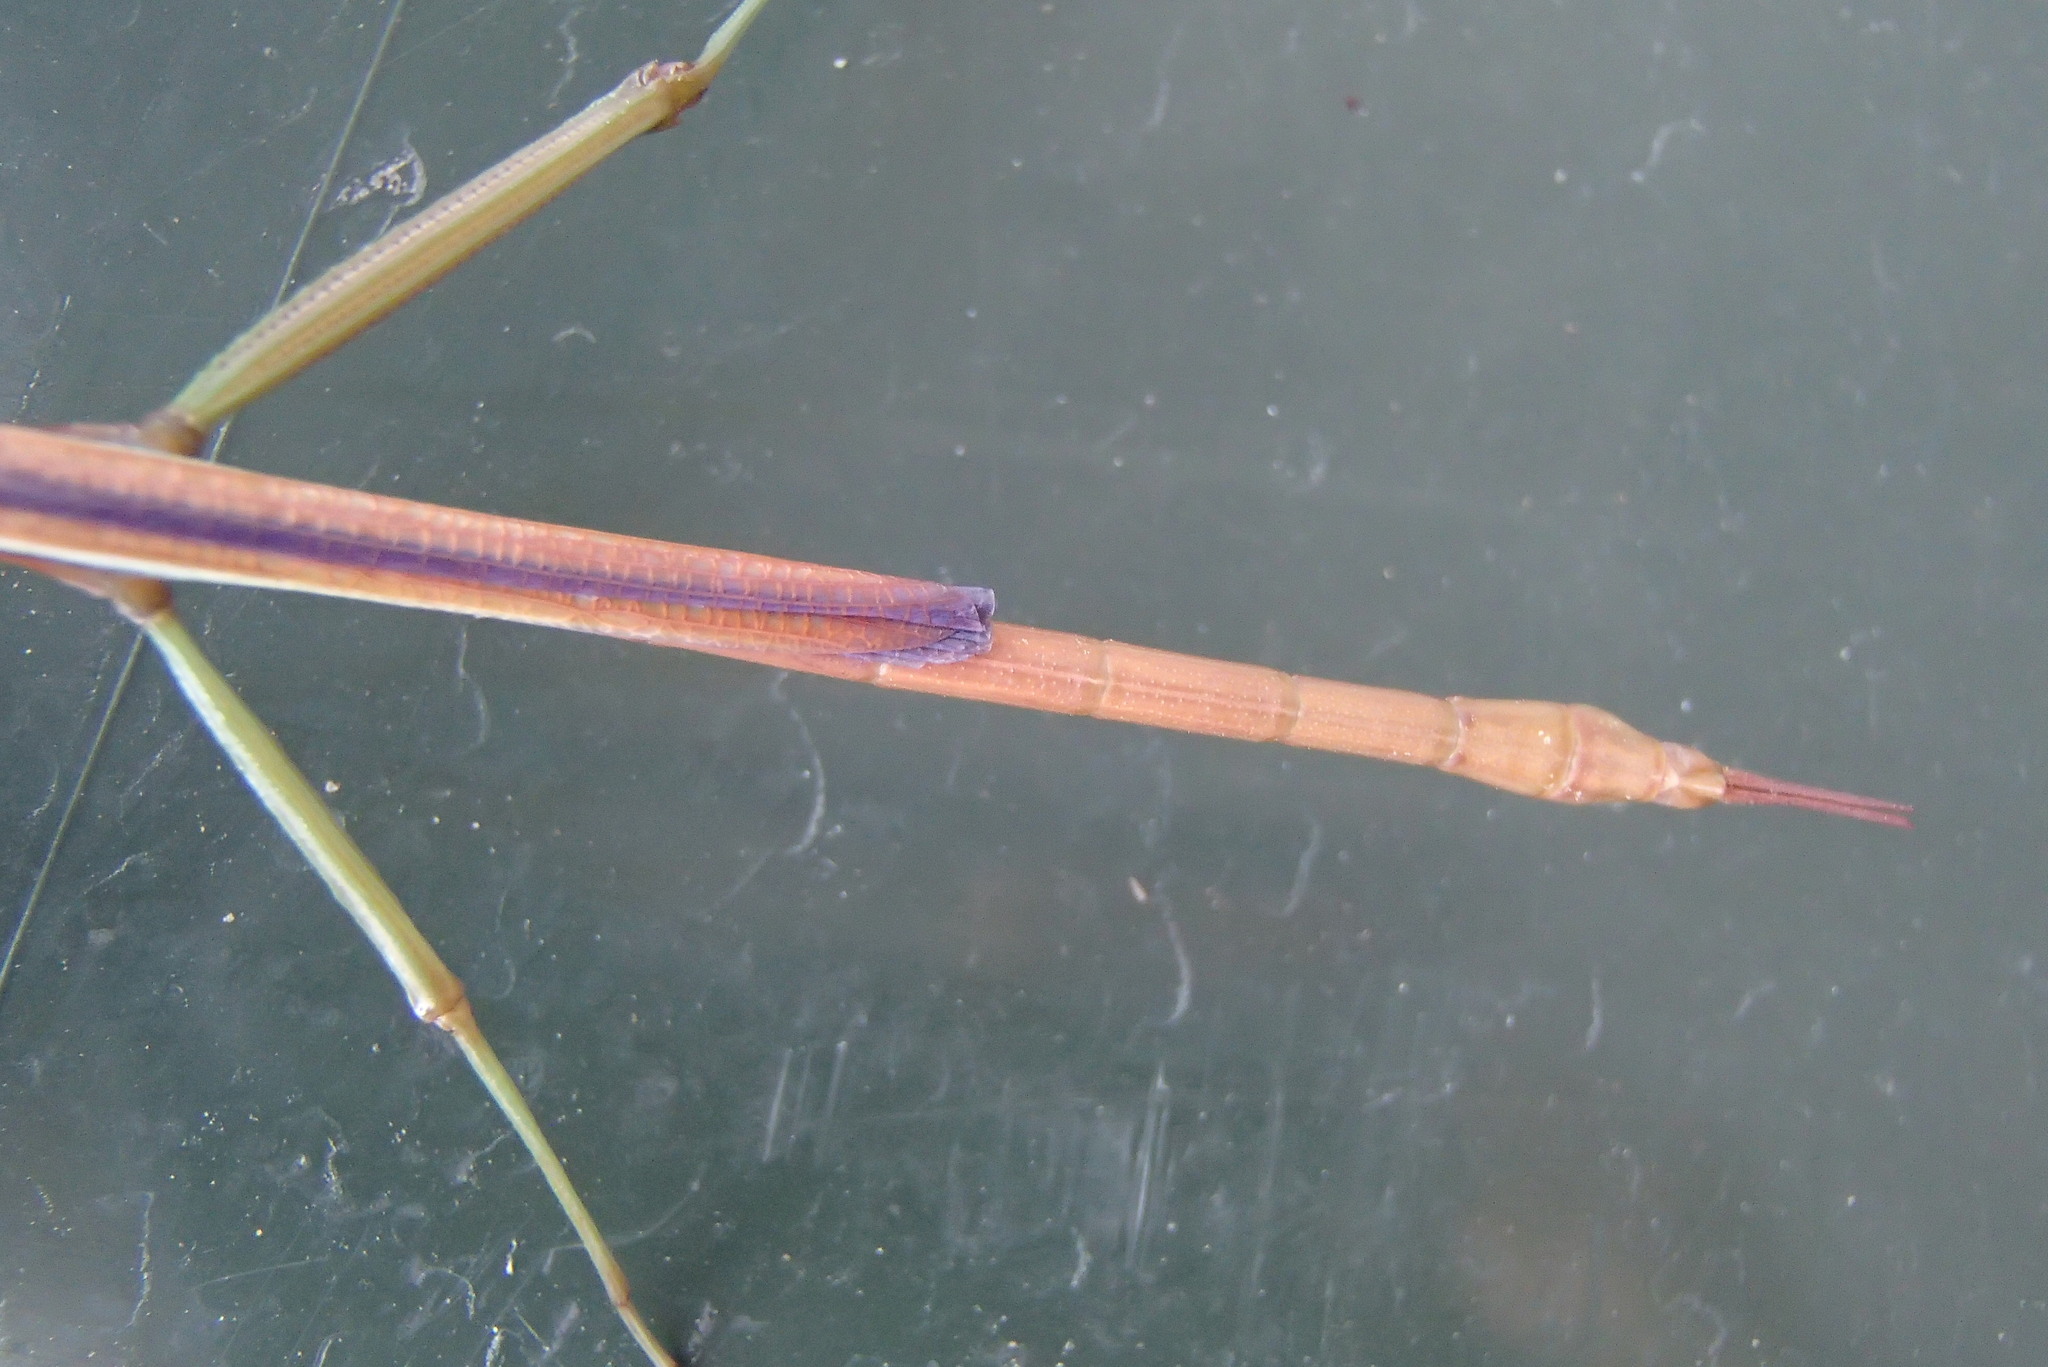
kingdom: Animalia
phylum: Arthropoda
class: Insecta
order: Phasmida
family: Phasmatidae
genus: Didymuria
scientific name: Didymuria violescens
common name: Spur-legged stick-insect
